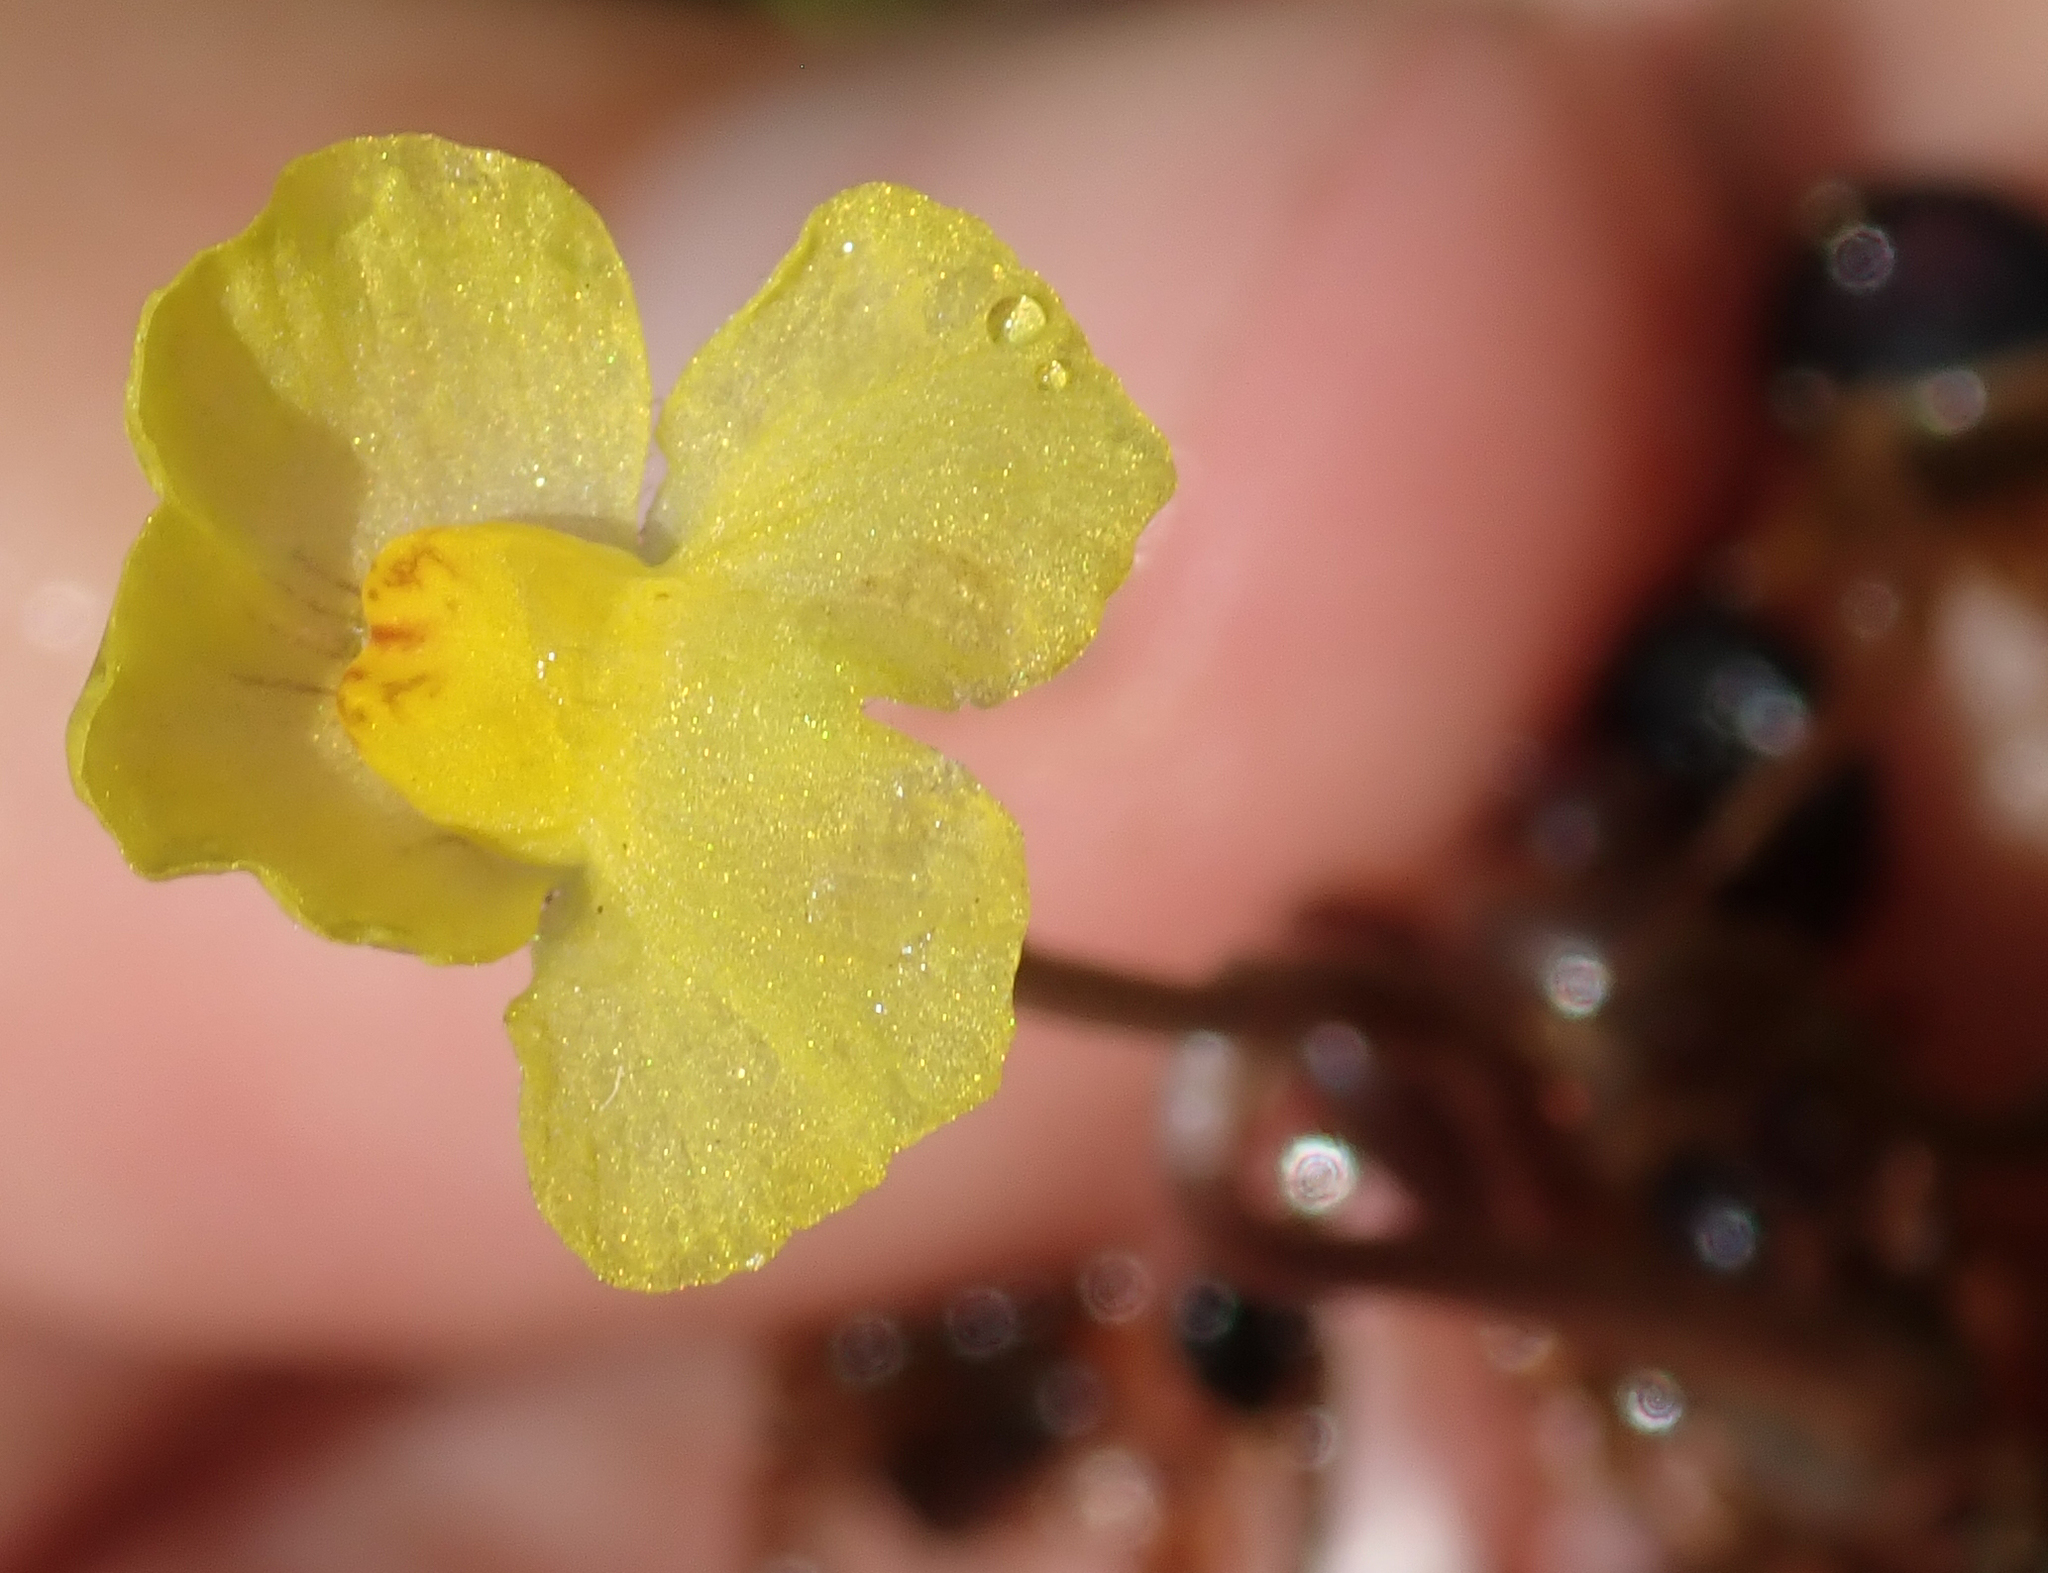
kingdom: Plantae
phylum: Tracheophyta
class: Magnoliopsida
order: Lamiales
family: Lentibulariaceae
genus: Utricularia
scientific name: Utricularia reflexa
